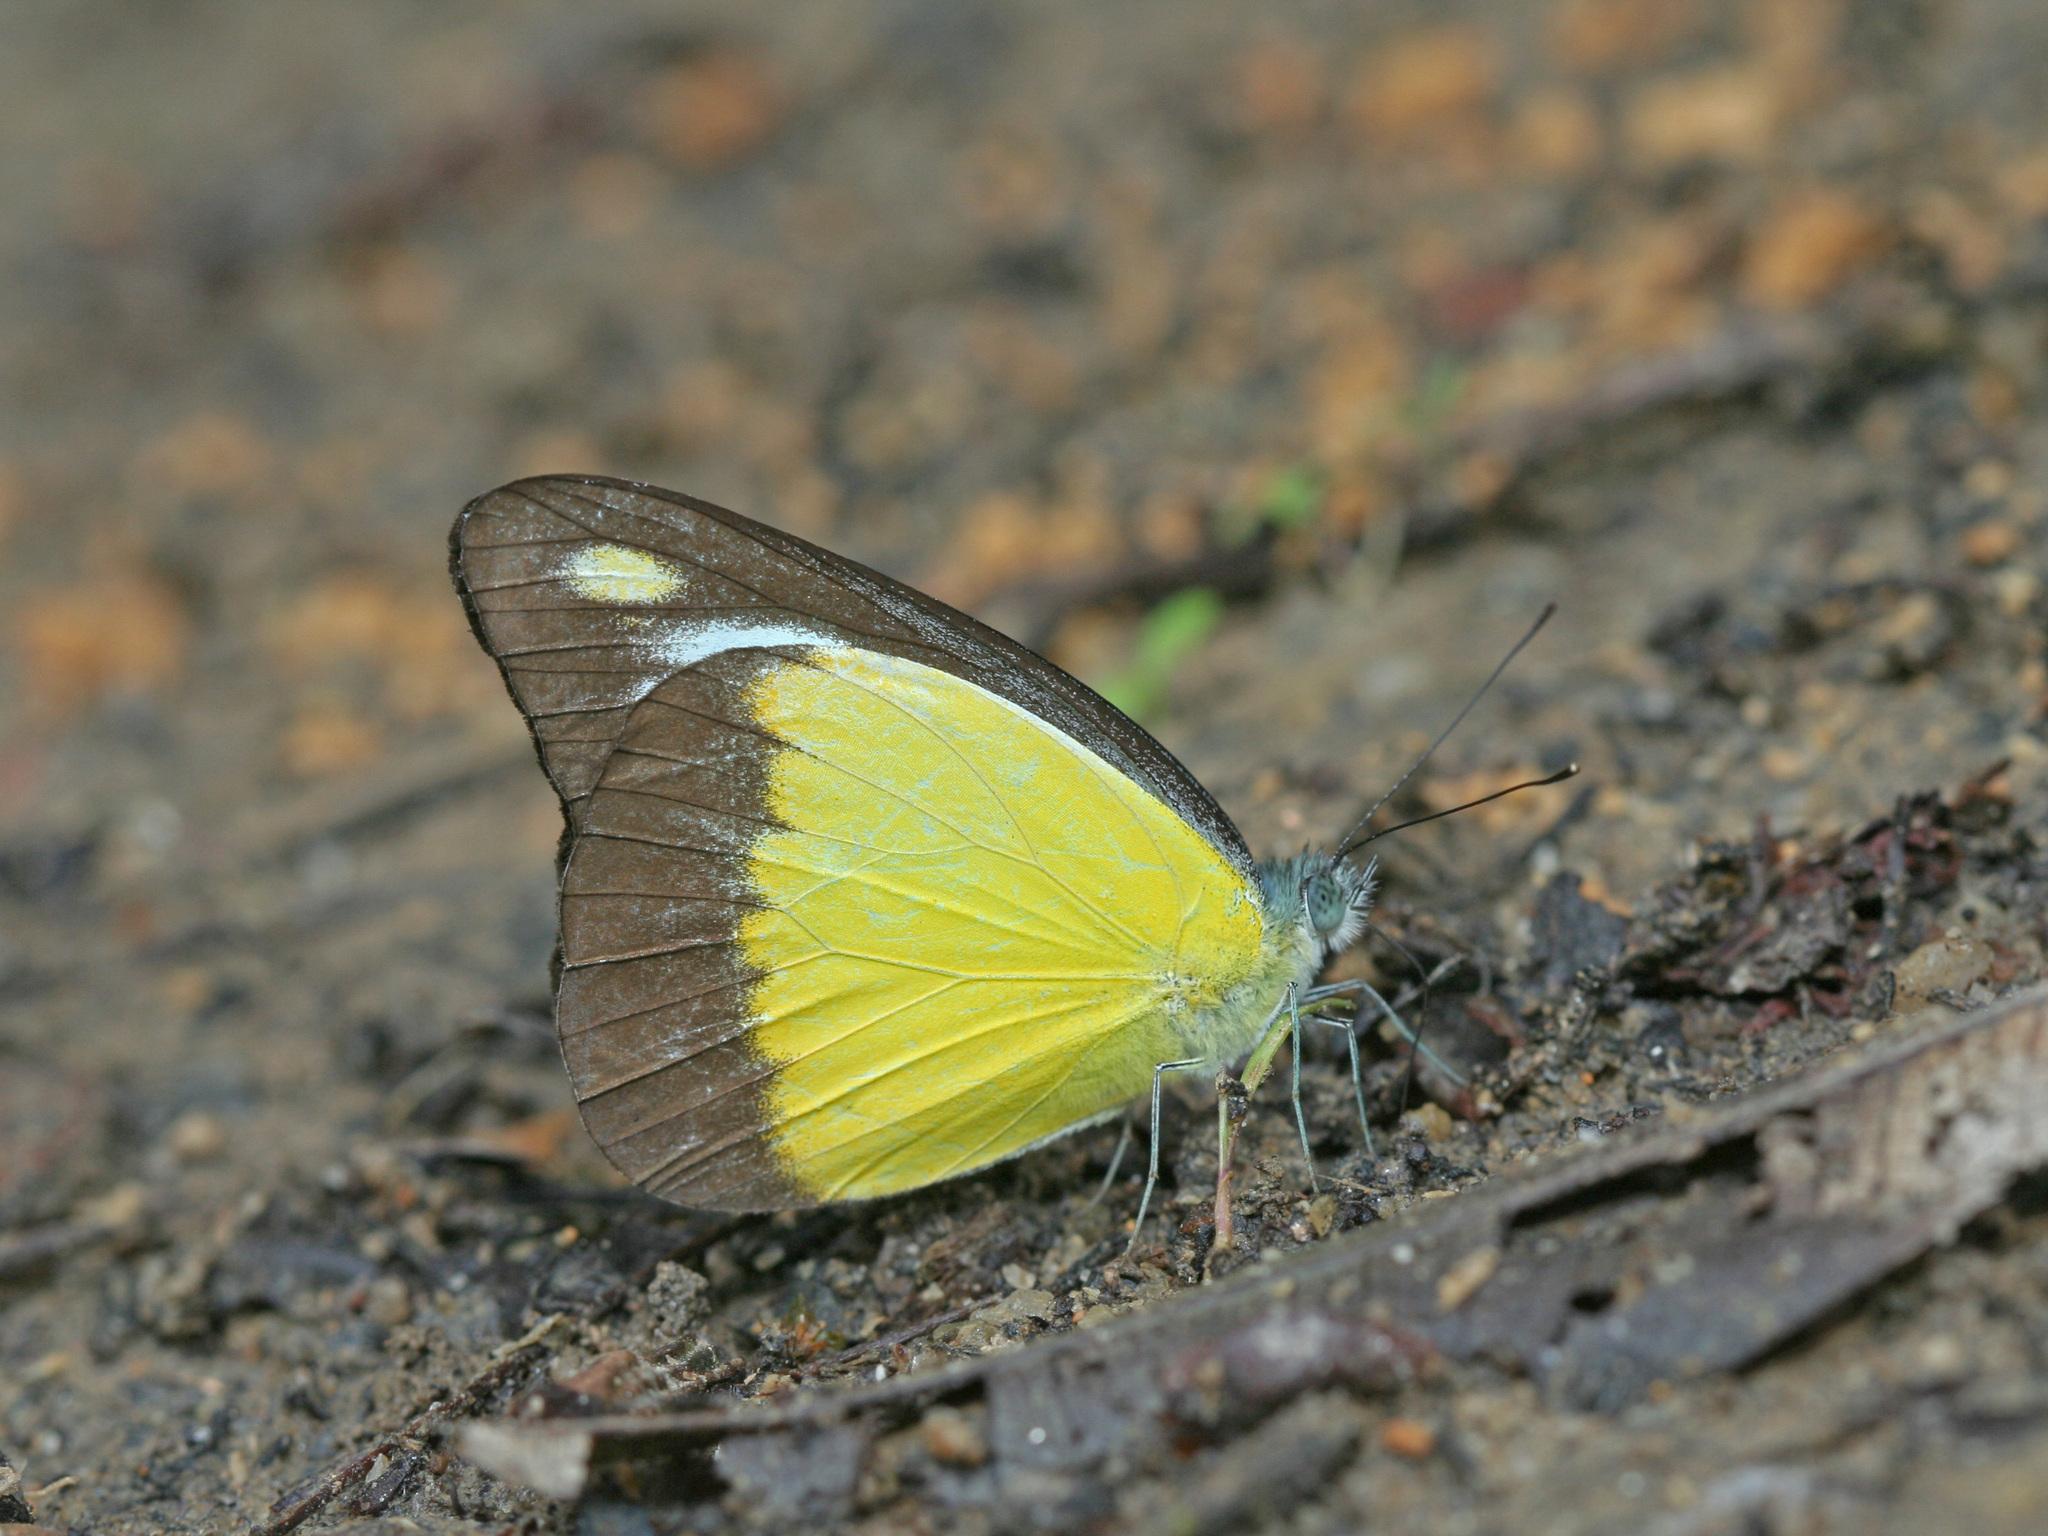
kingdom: Animalia
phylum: Arthropoda
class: Insecta
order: Lepidoptera
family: Pieridae
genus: Appias
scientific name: Appias lyncida
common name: Chocolate albatross
